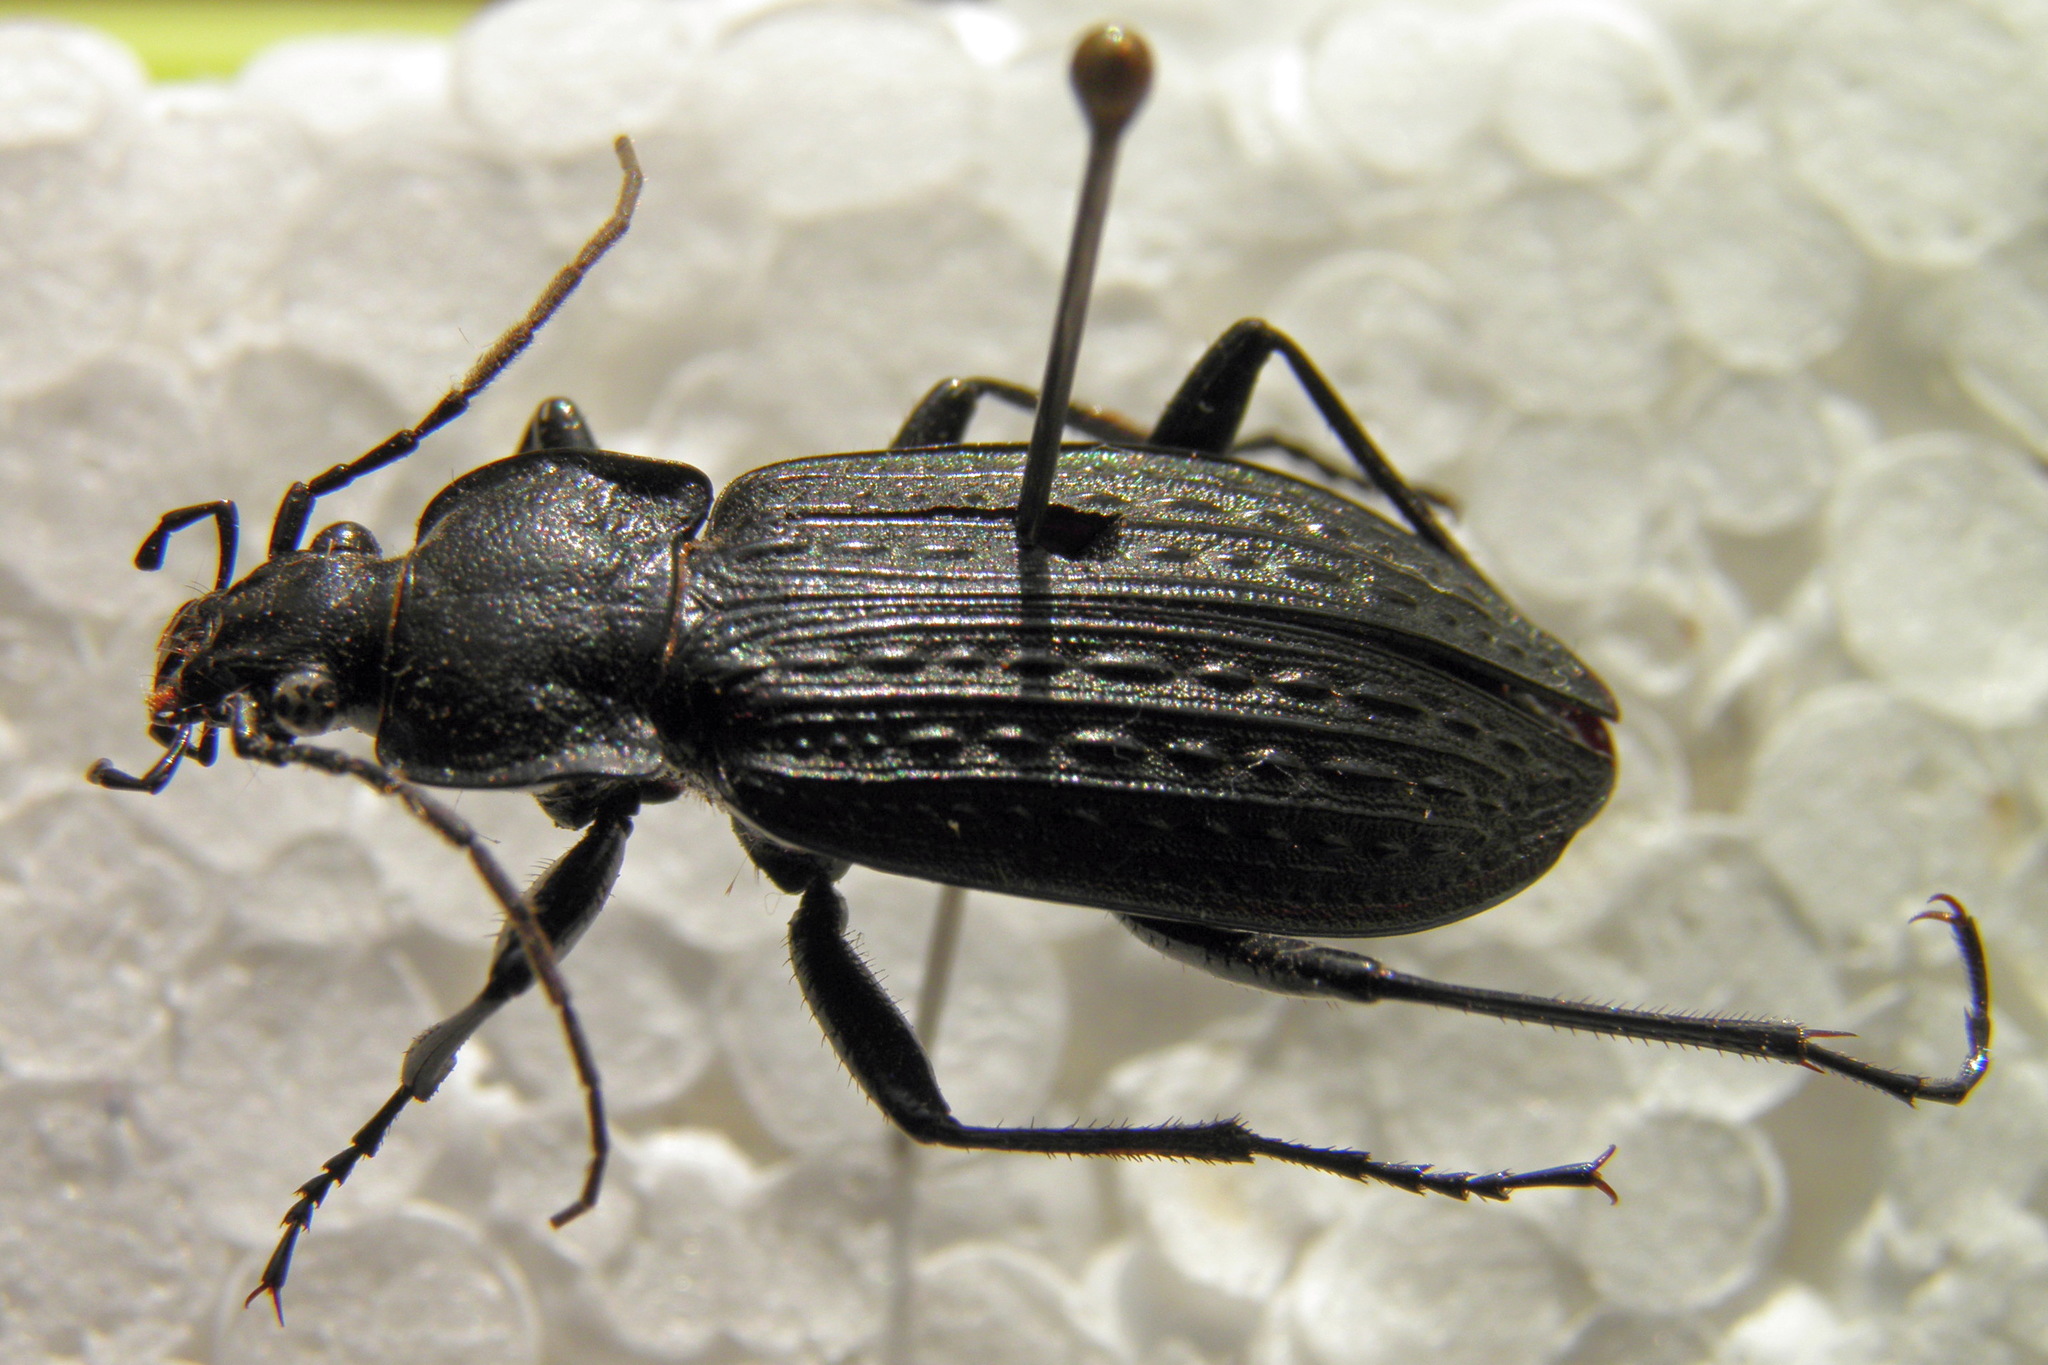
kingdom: Animalia
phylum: Arthropoda
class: Insecta
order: Coleoptera
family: Carabidae
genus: Carabus
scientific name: Carabus granulatus
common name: Granulate ground beetle
